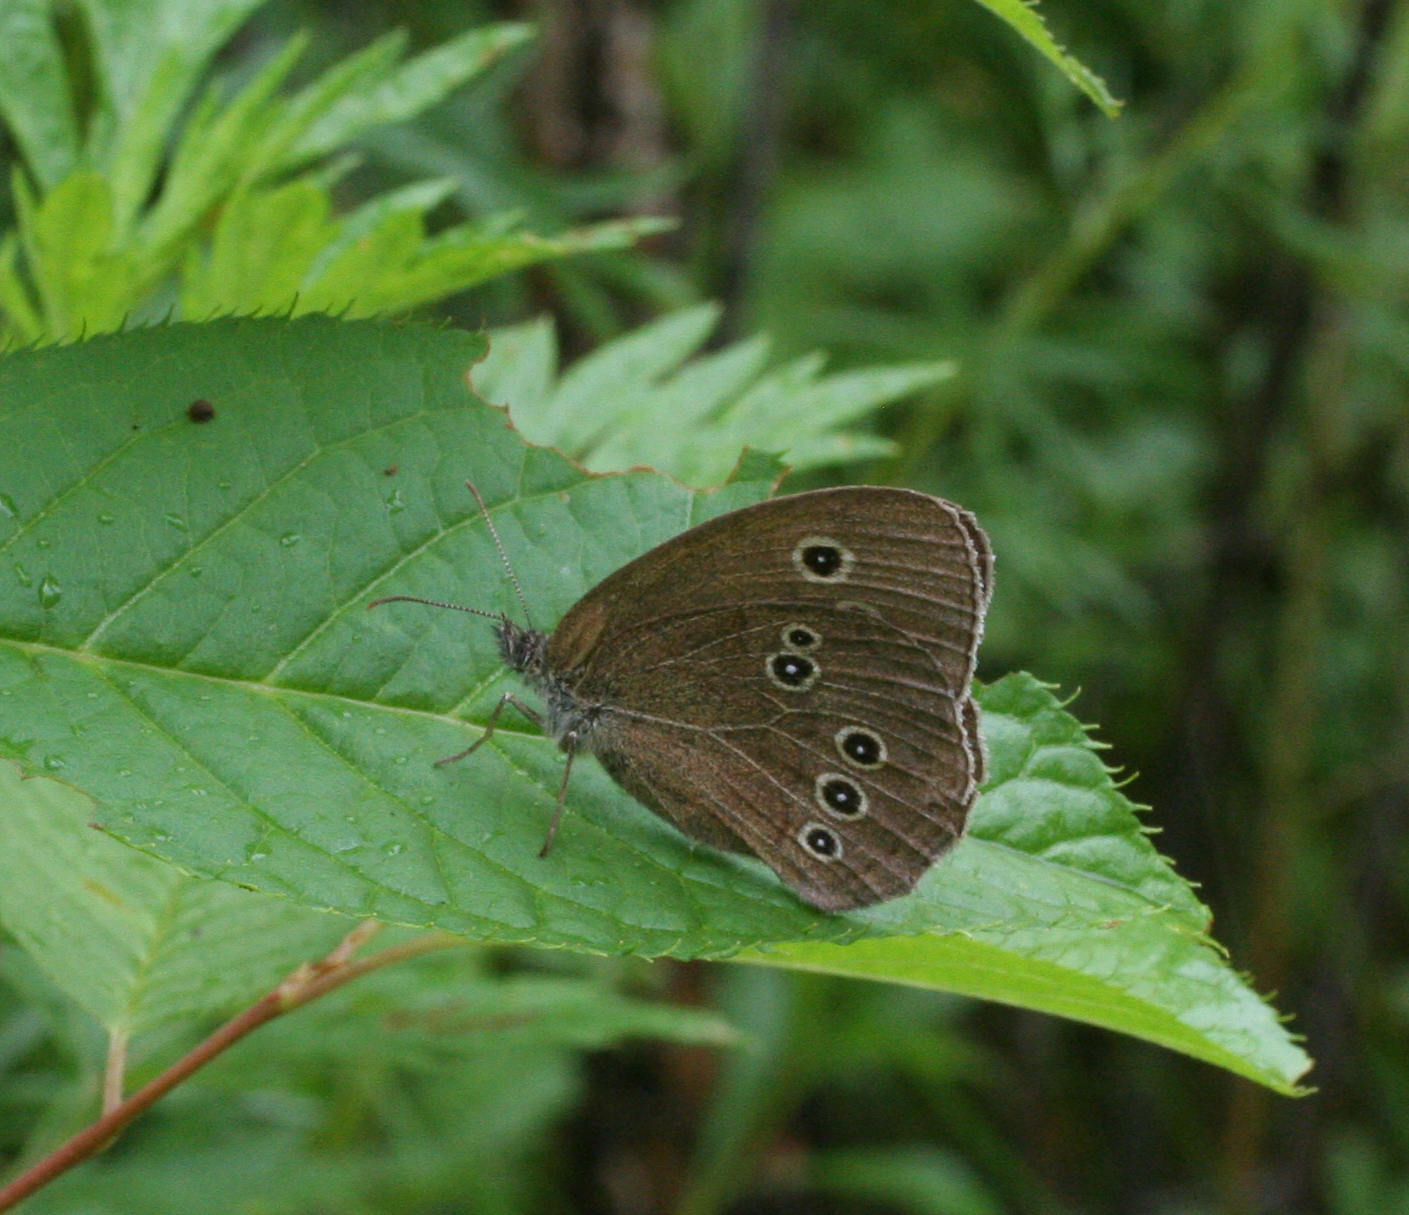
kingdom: Animalia
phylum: Arthropoda
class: Insecta
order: Lepidoptera
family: Nymphalidae
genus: Aphantopus
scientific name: Aphantopus hyperantus
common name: Ringlet
